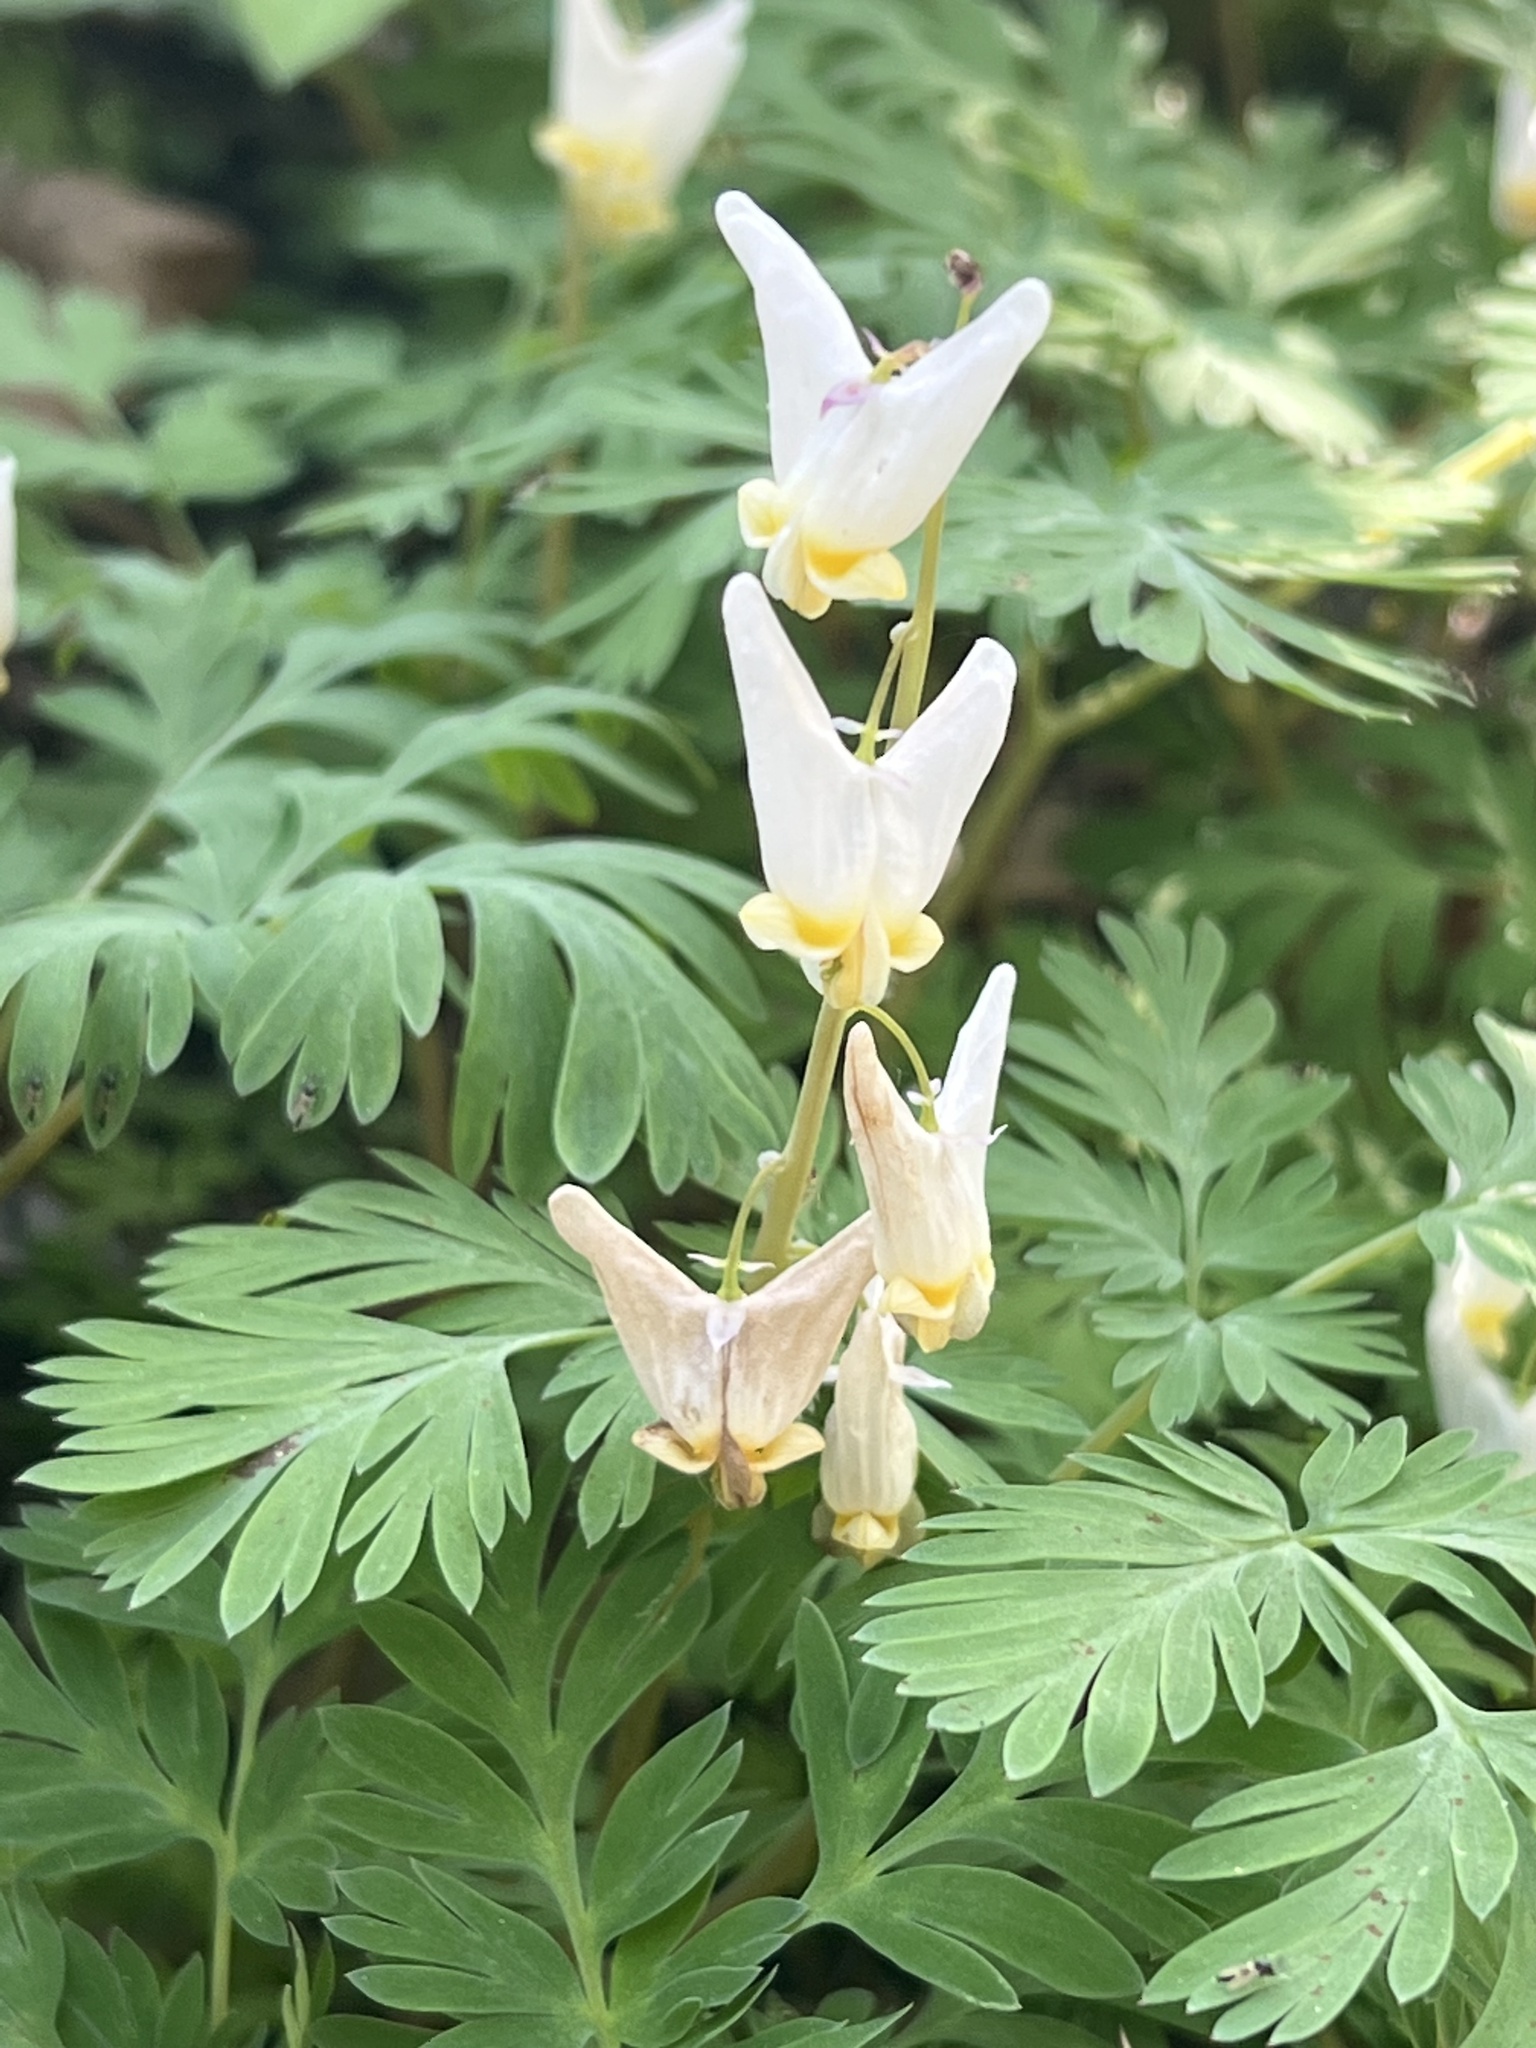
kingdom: Plantae
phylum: Tracheophyta
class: Magnoliopsida
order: Ranunculales
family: Papaveraceae
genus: Dicentra
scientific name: Dicentra cucullaria
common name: Dutchman's breeches
